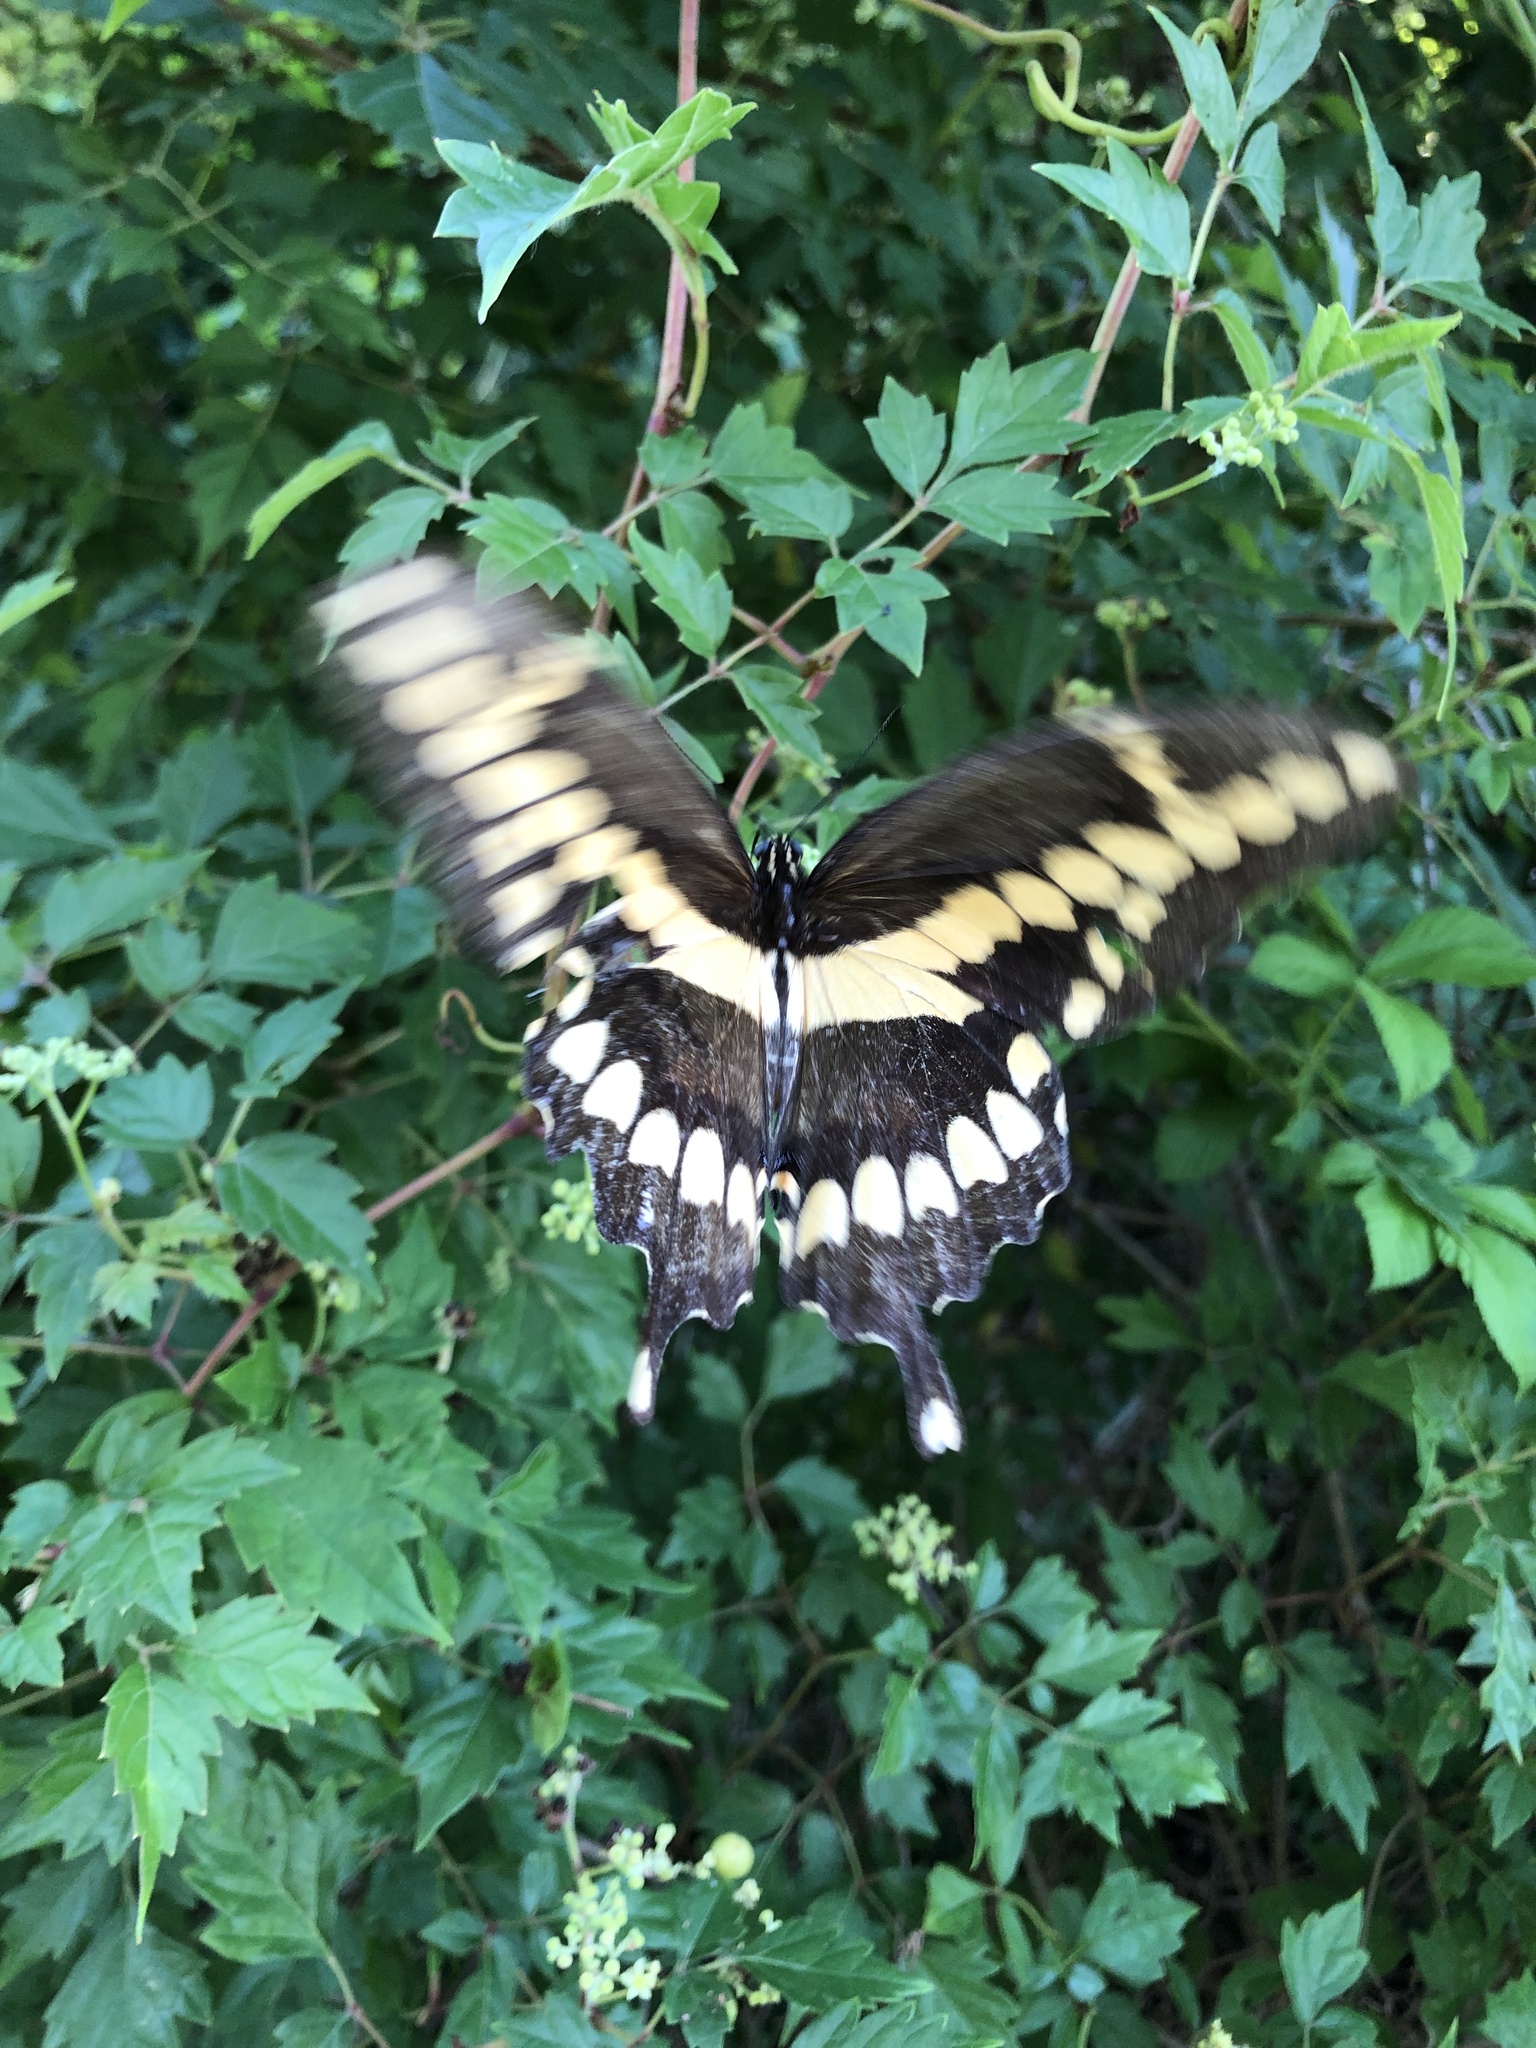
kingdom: Animalia
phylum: Arthropoda
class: Insecta
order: Lepidoptera
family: Papilionidae
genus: Papilio
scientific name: Papilio cresphontes
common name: Giant swallowtail
